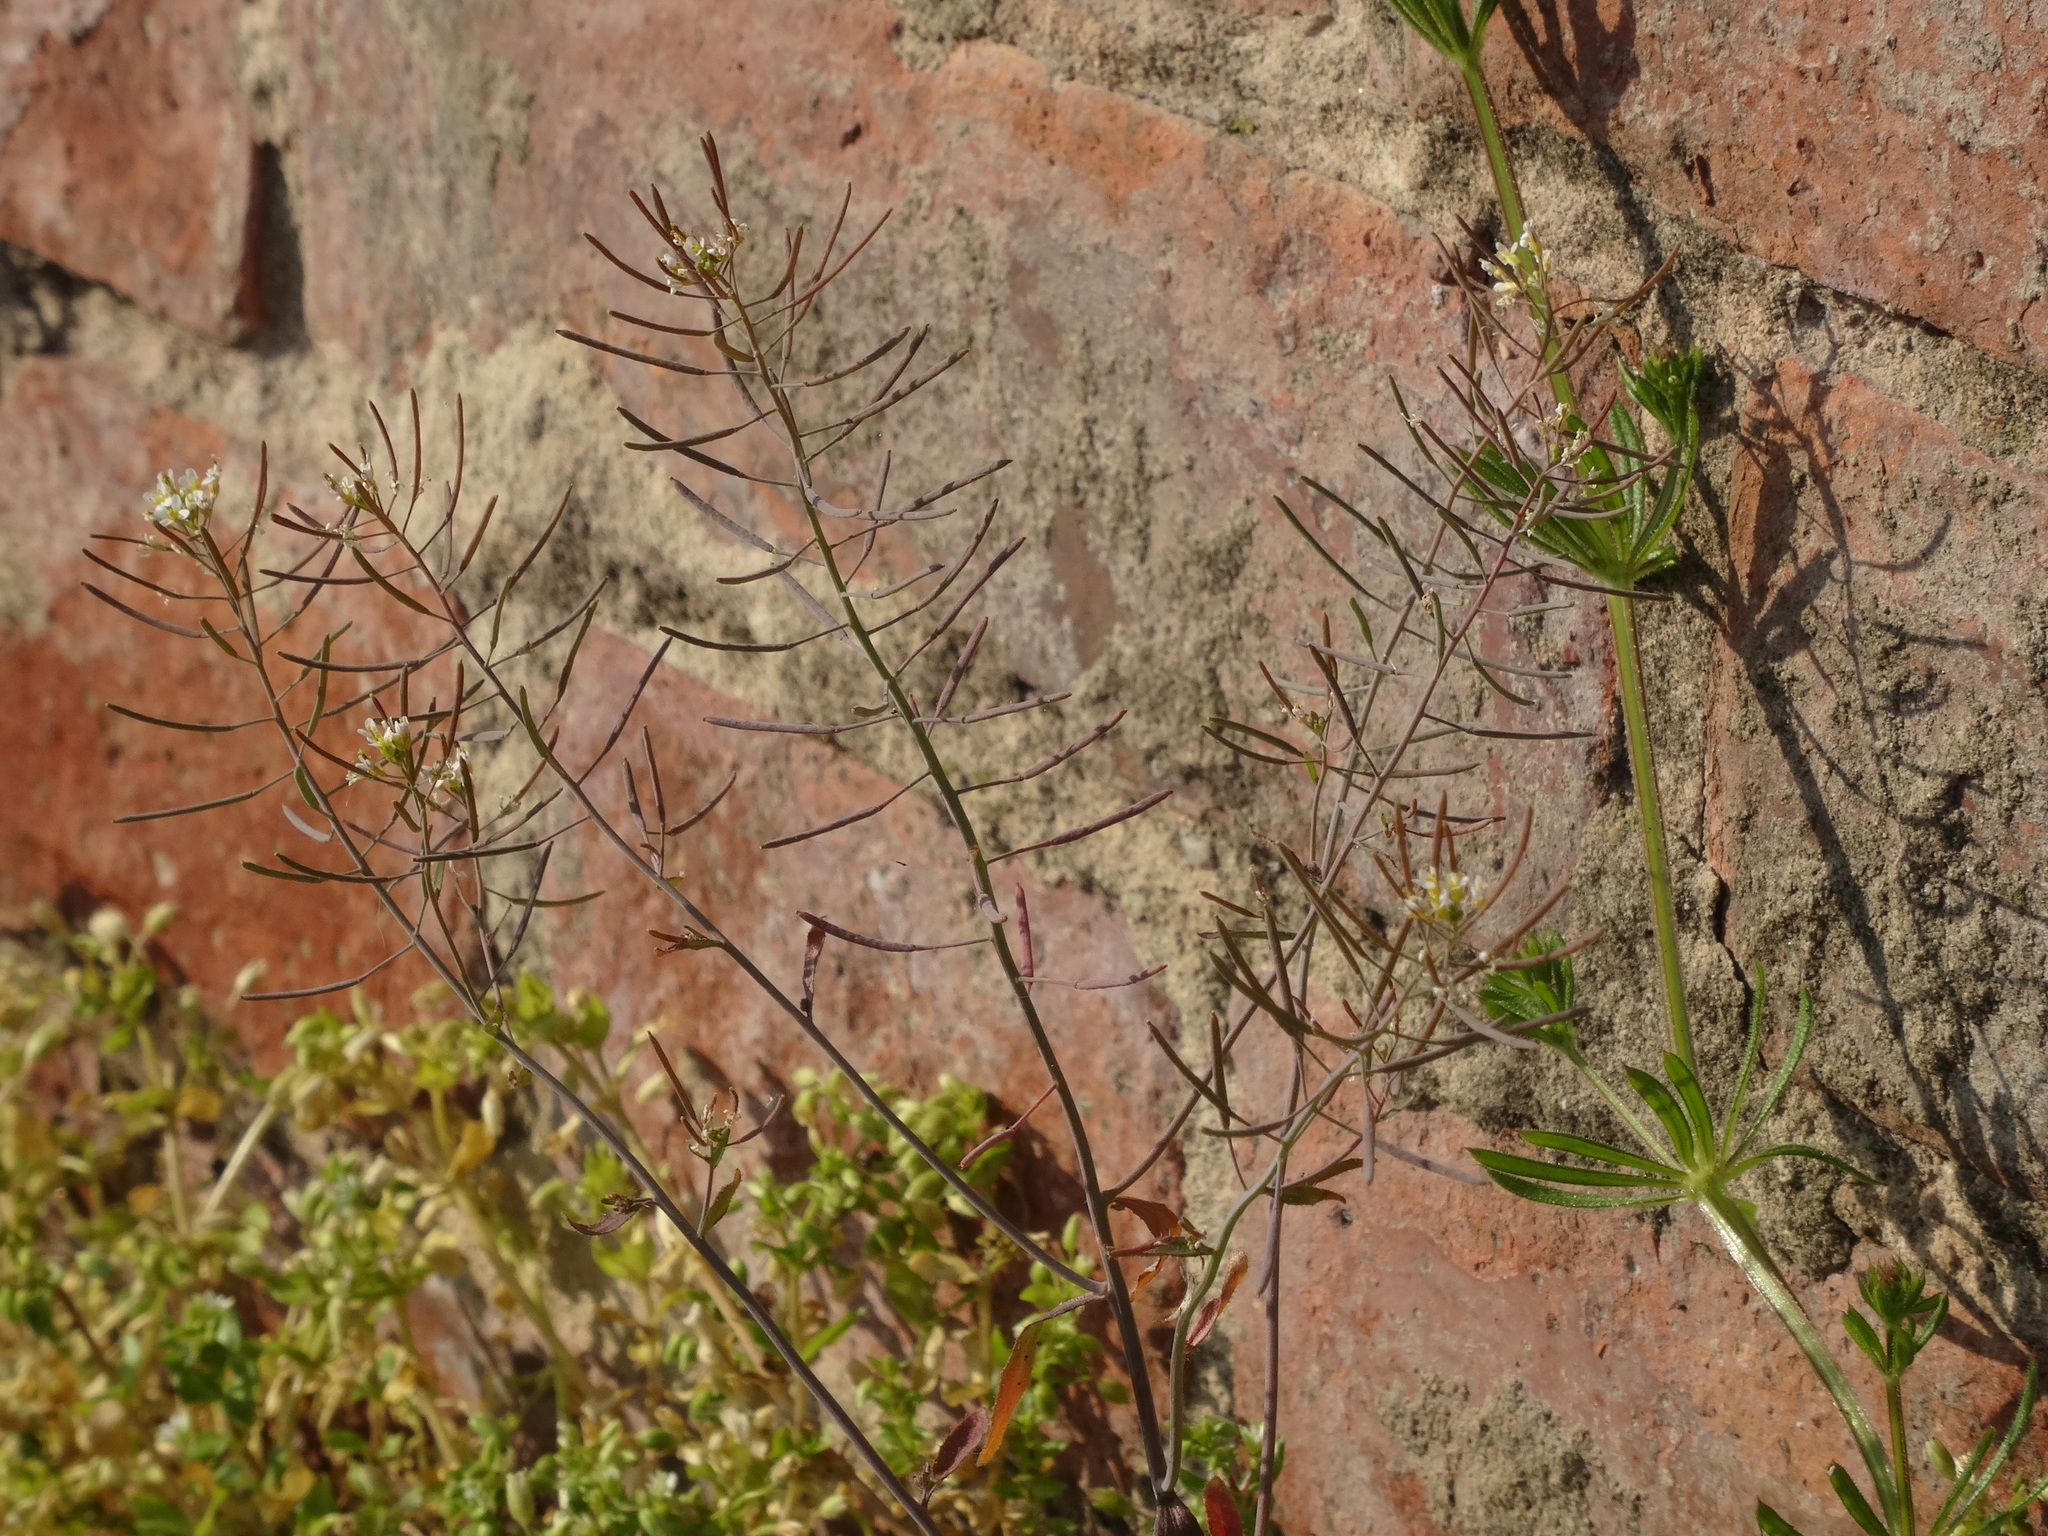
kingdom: Plantae
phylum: Tracheophyta
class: Magnoliopsida
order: Brassicales
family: Brassicaceae
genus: Arabidopsis
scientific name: Arabidopsis thaliana
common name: Thale cress
